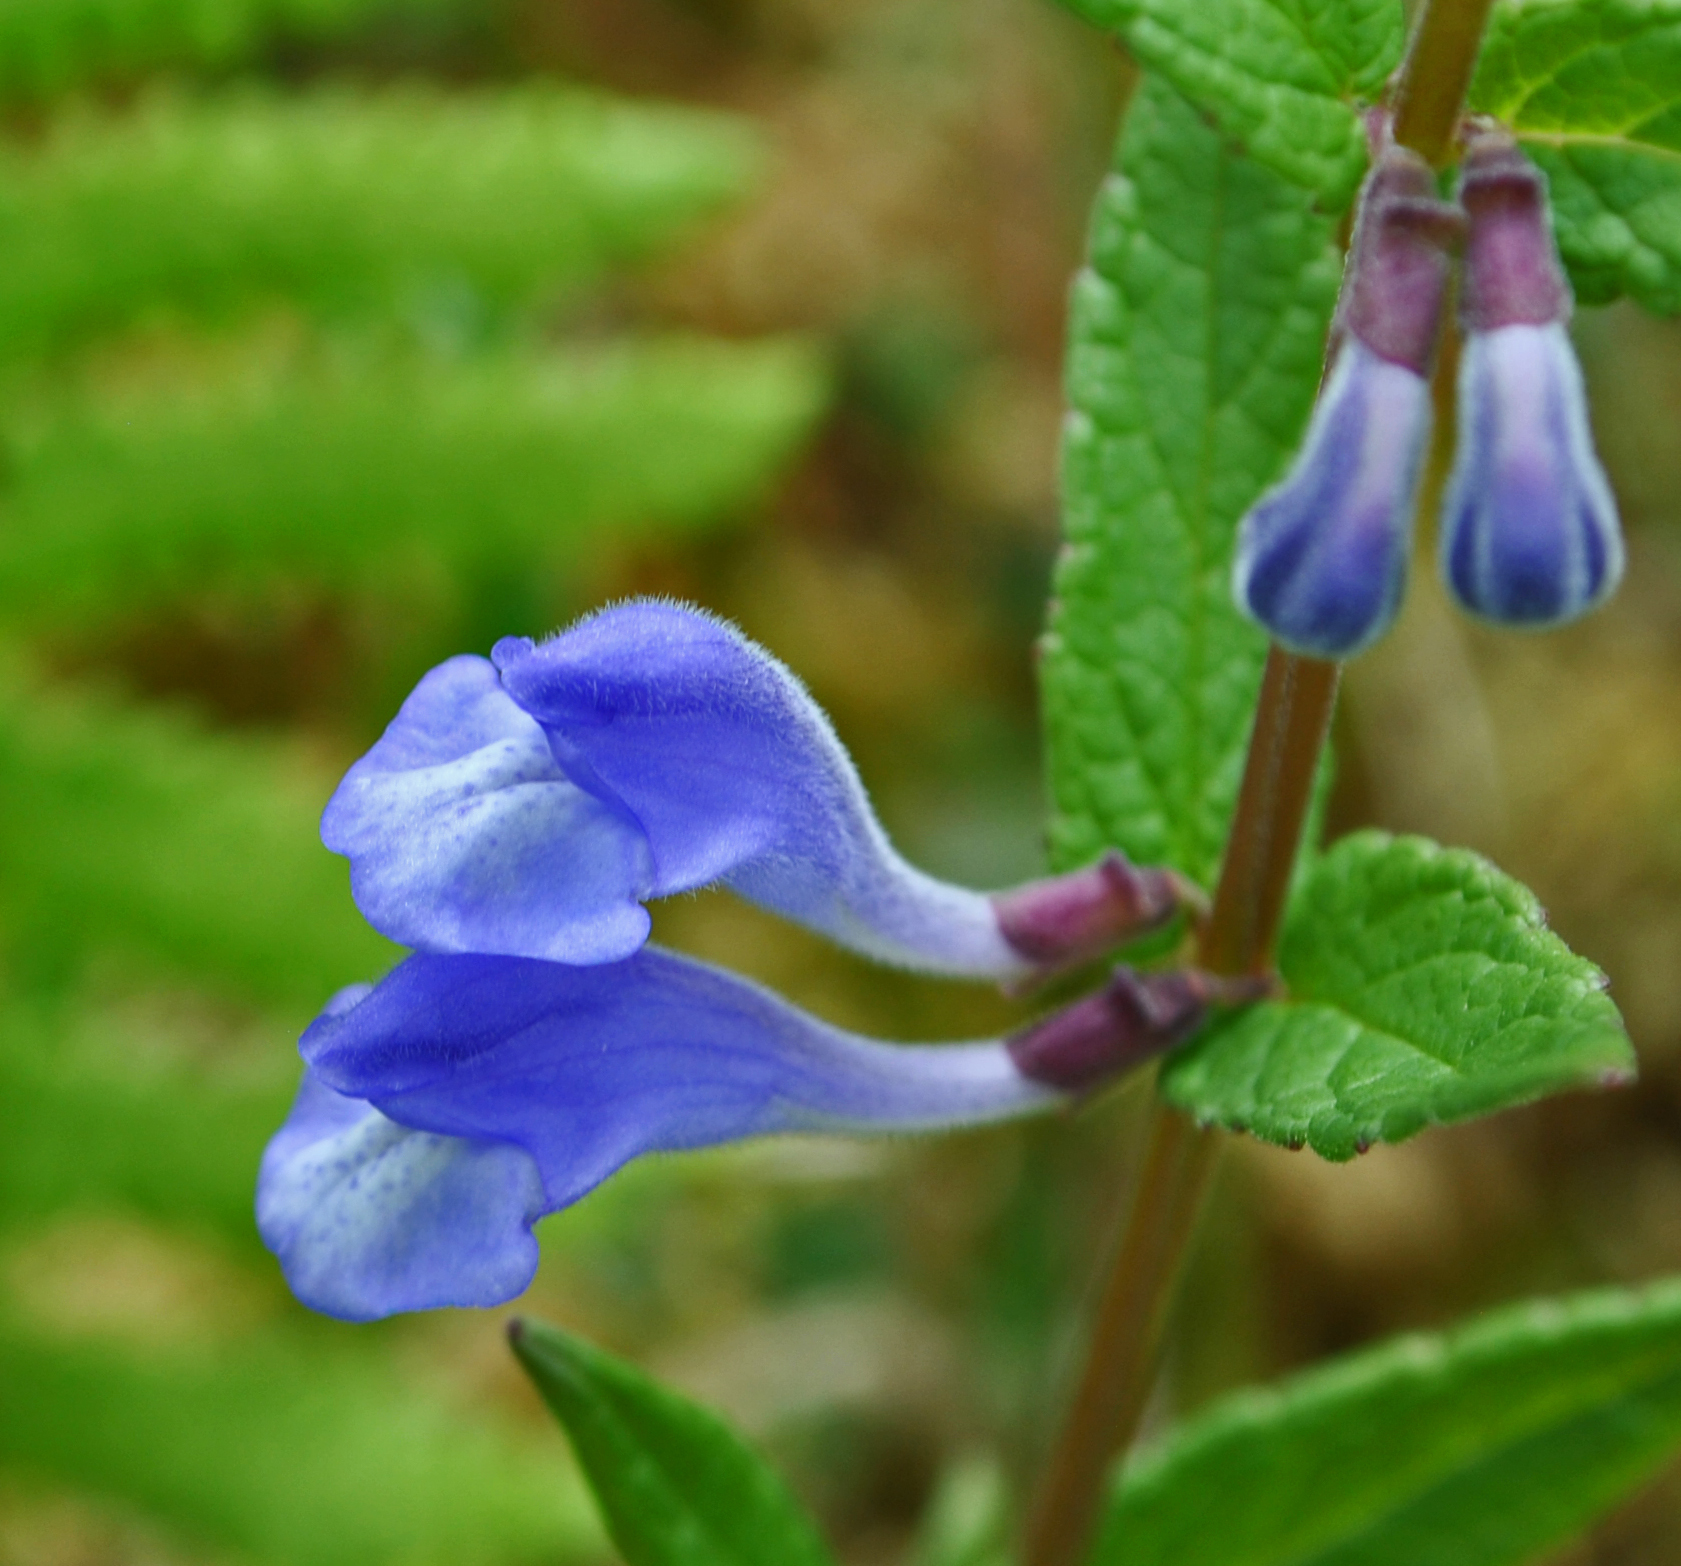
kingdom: Plantae
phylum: Tracheophyta
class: Magnoliopsida
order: Lamiales
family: Lamiaceae
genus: Scutellaria
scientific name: Scutellaria galericulata
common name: Skullcap
